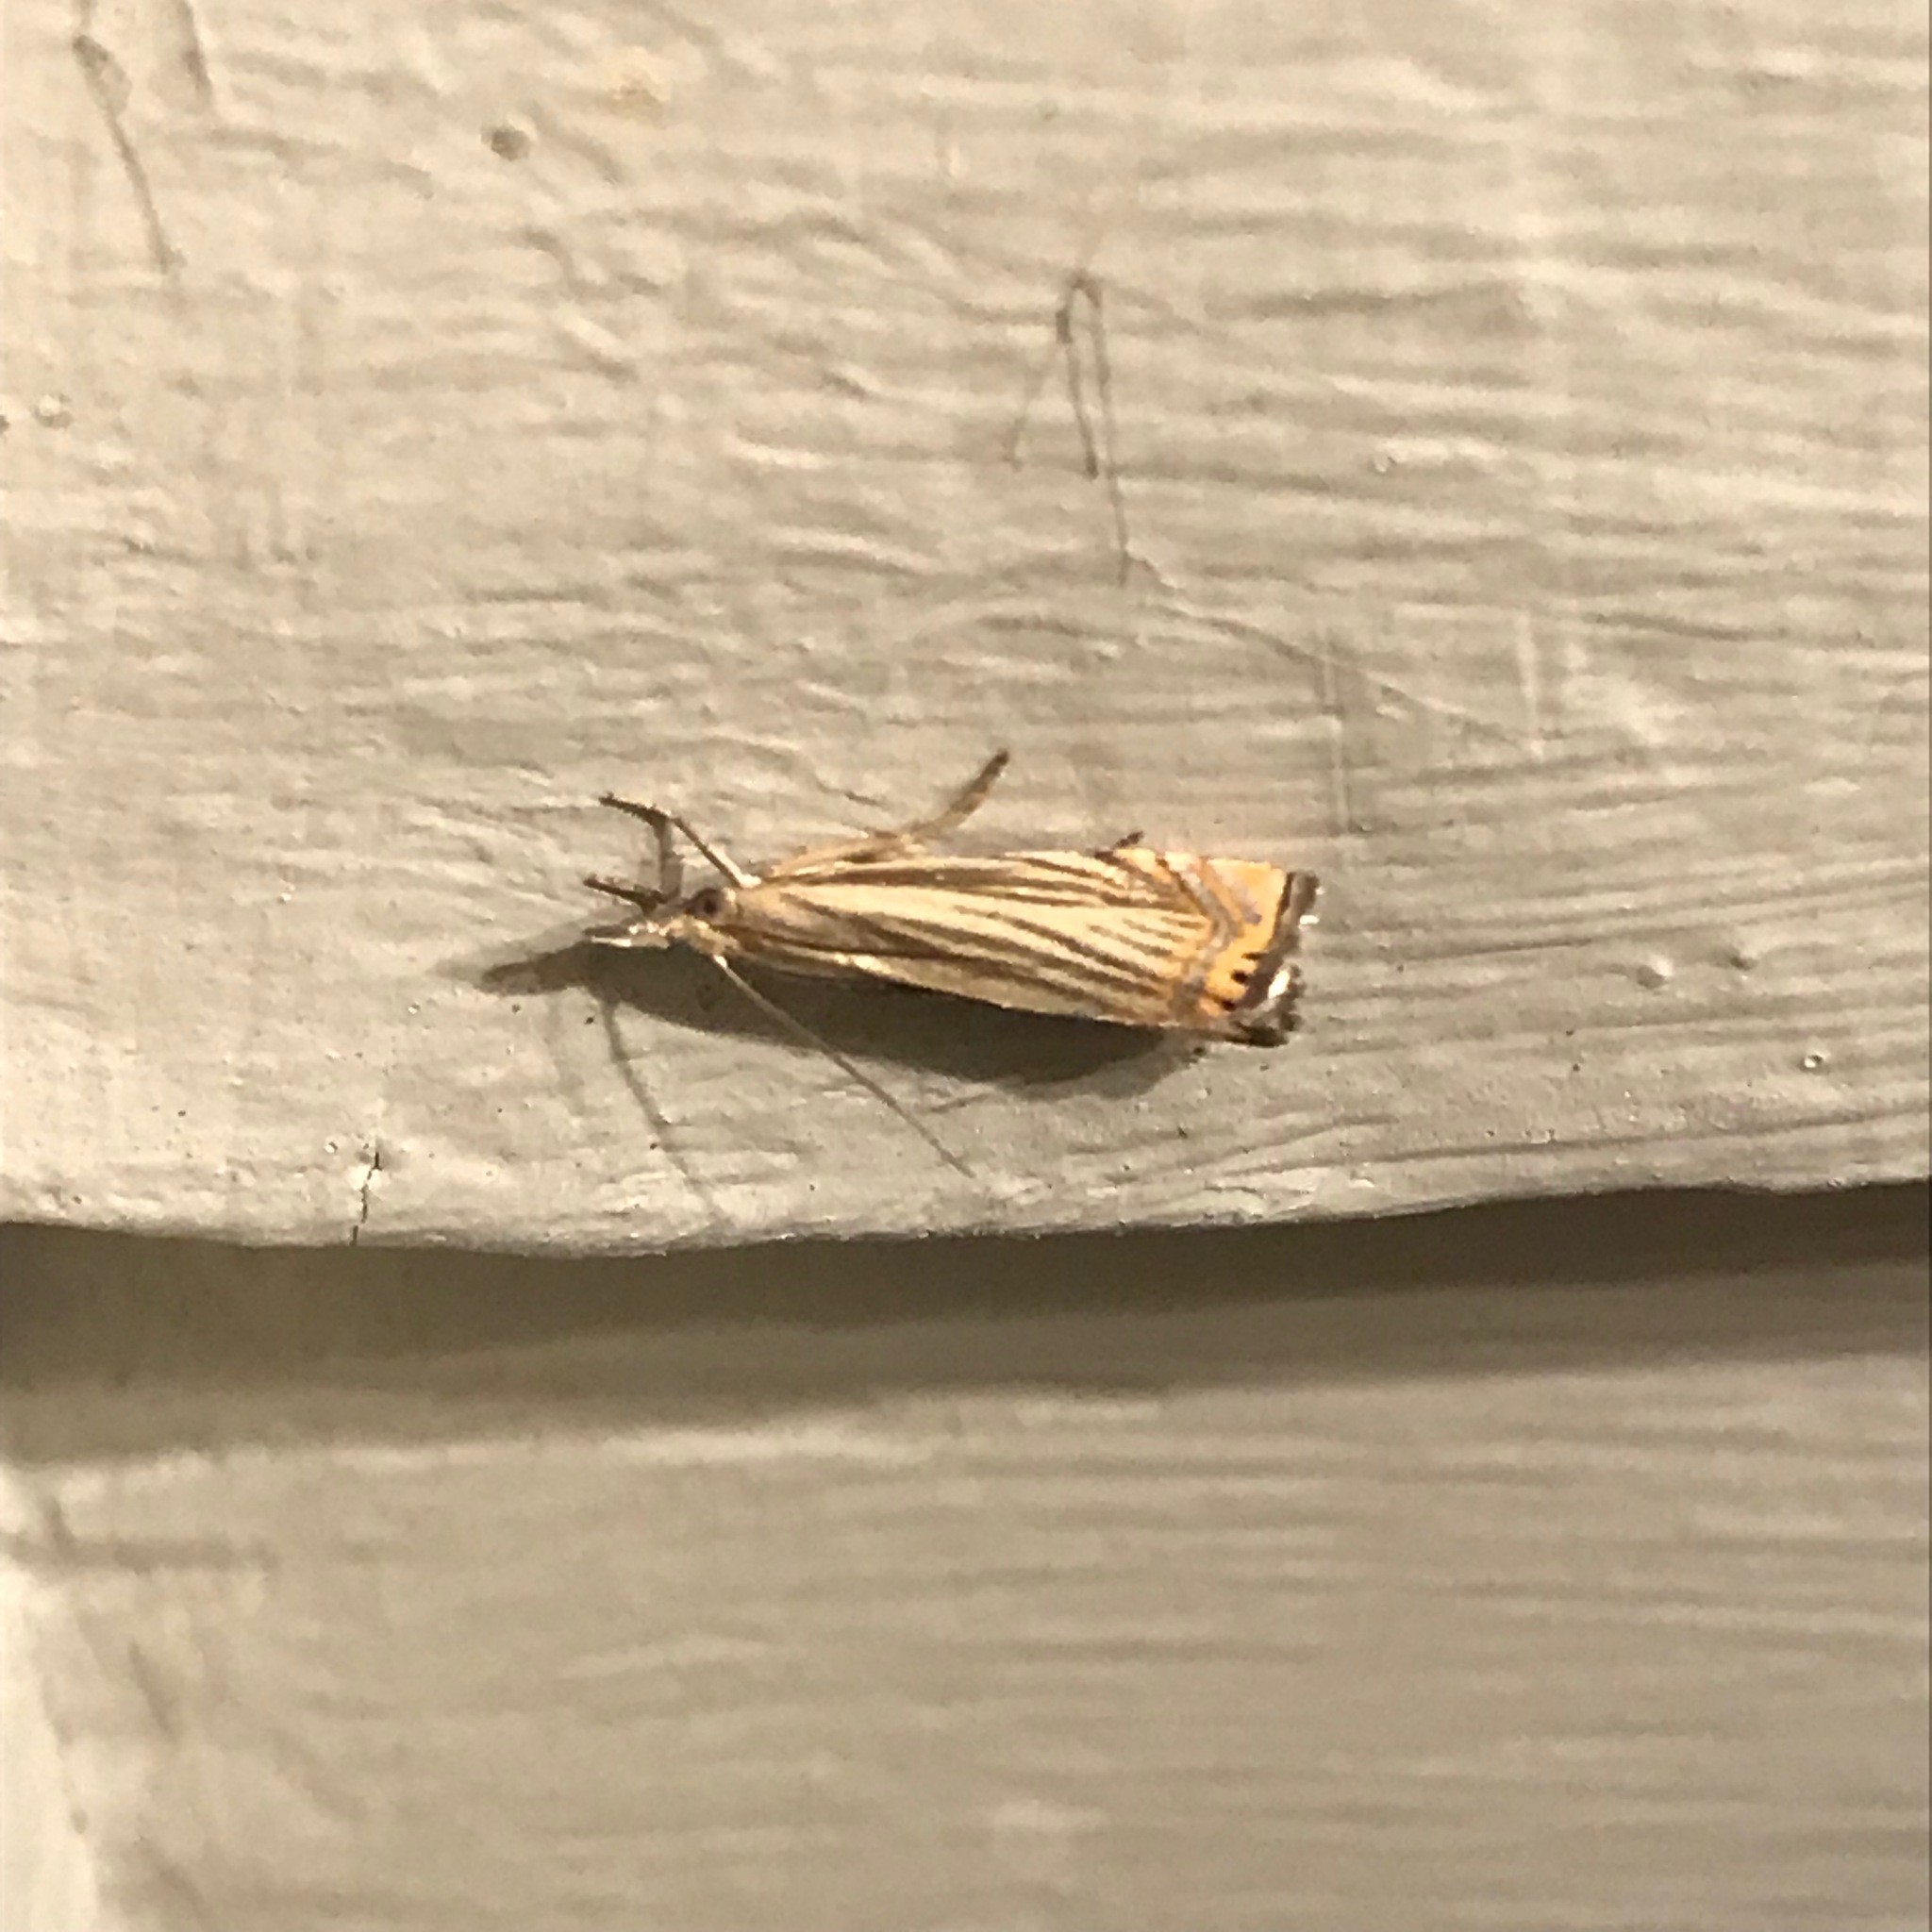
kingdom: Animalia
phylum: Arthropoda
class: Insecta
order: Lepidoptera
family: Crambidae
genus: Chrysoteuchia
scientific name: Chrysoteuchia topiarius
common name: Topiary grass-veneer
